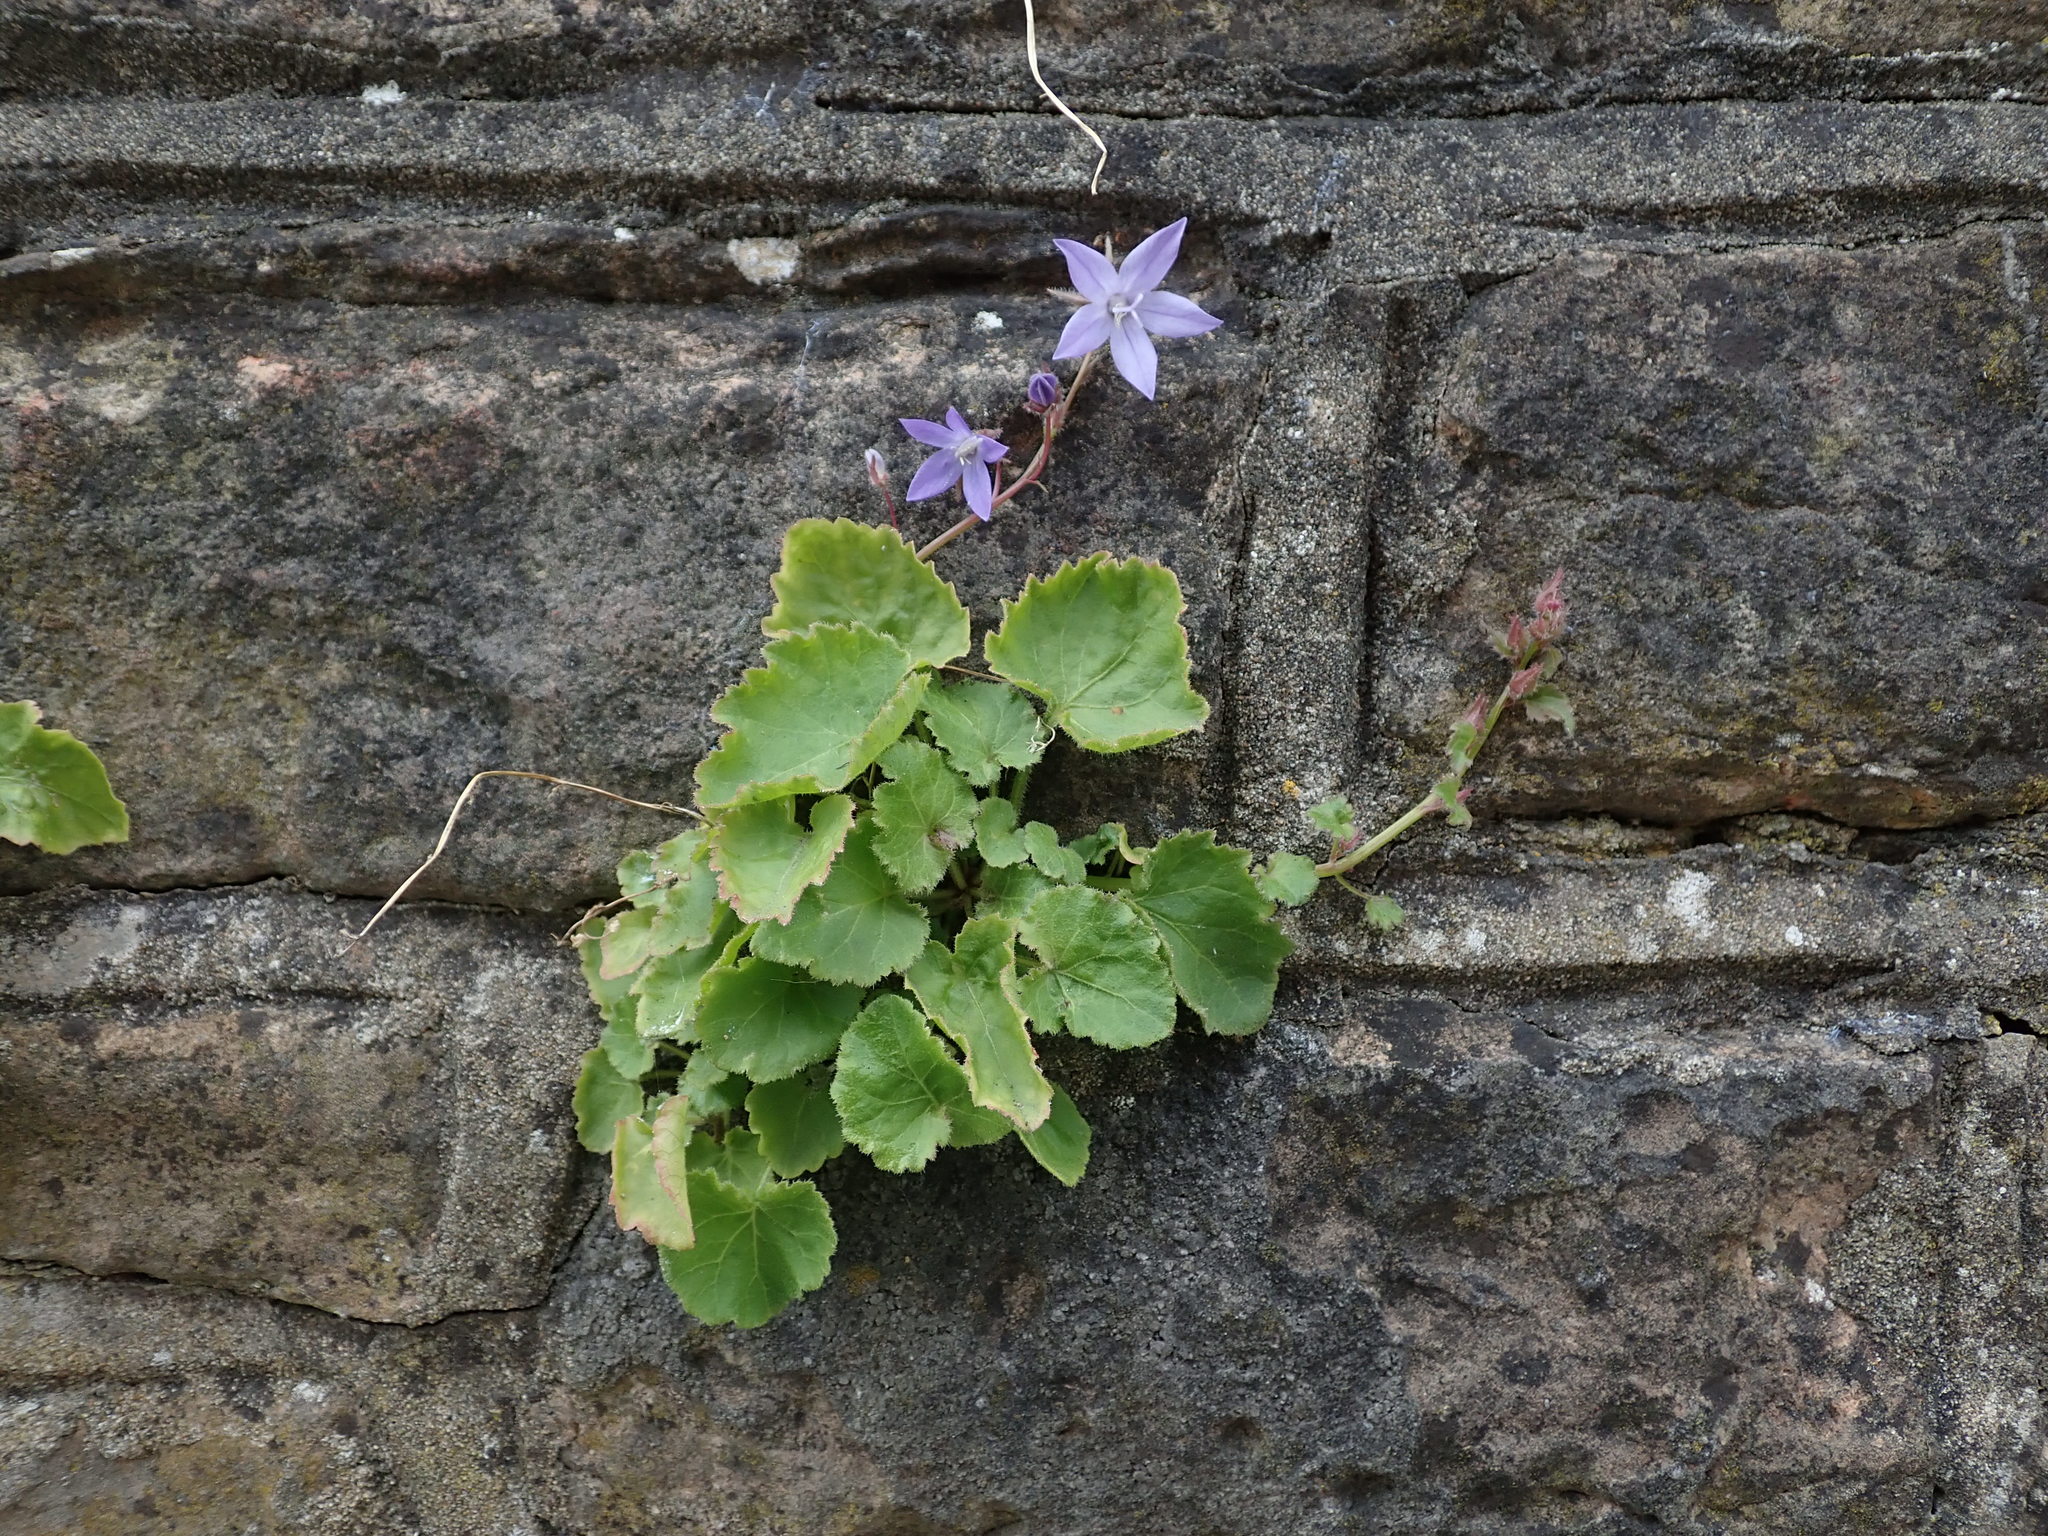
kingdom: Plantae
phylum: Tracheophyta
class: Magnoliopsida
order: Asterales
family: Campanulaceae
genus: Campanula
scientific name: Campanula poscharskyana
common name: Trailing bellflower
